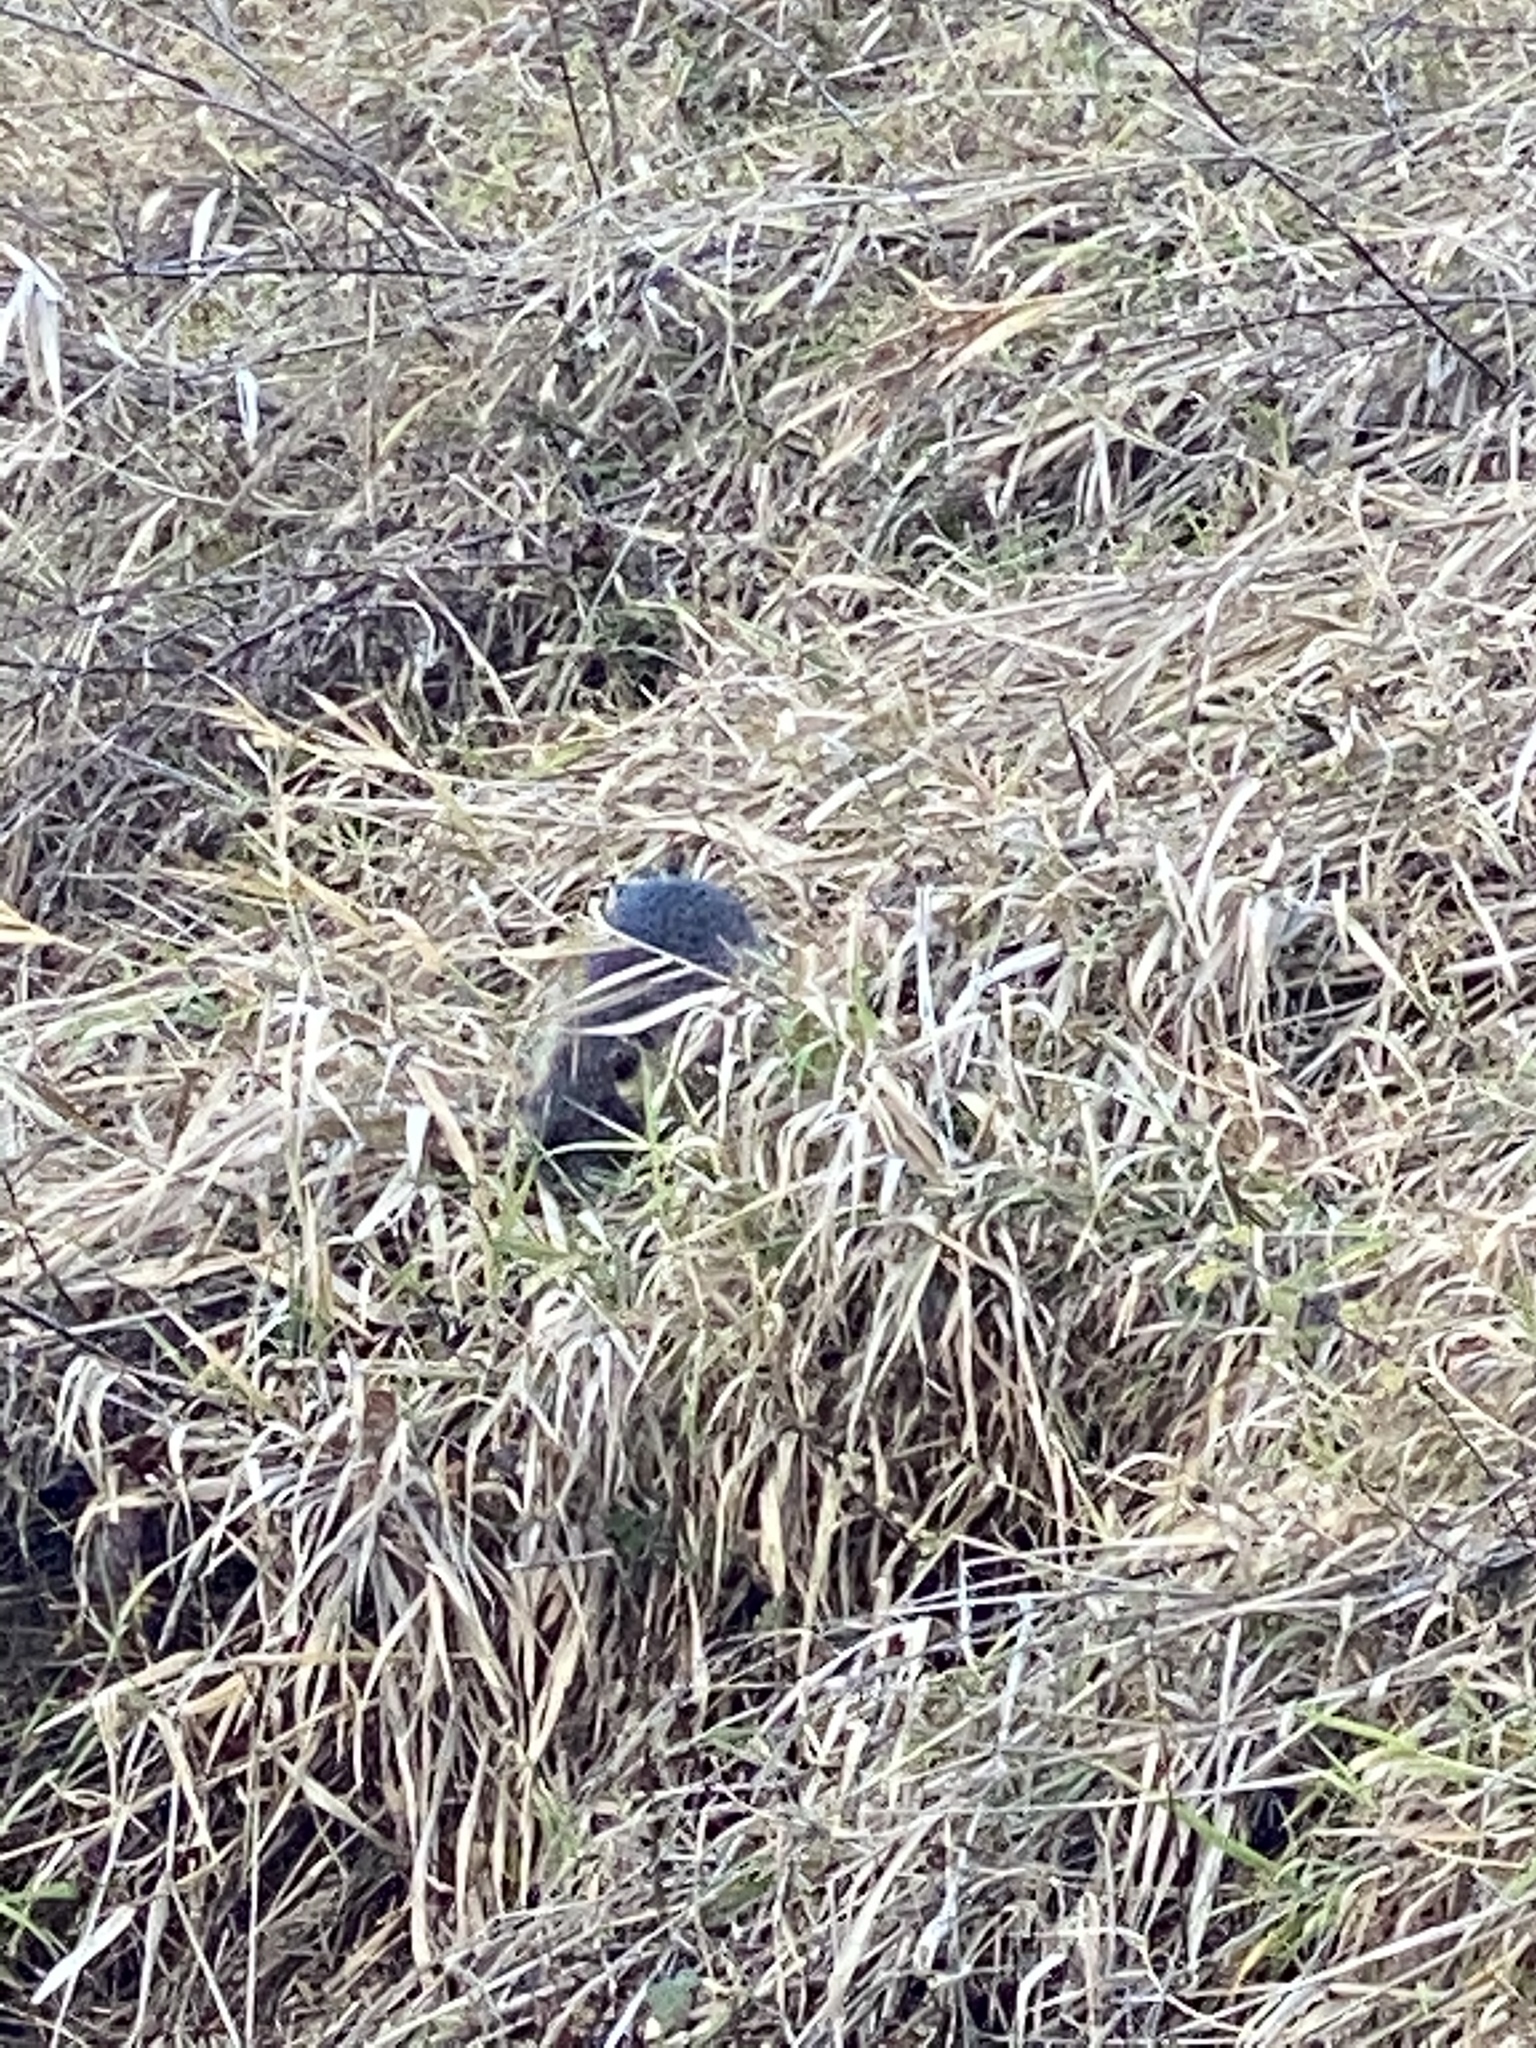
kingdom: Animalia
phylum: Chordata
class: Mammalia
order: Rodentia
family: Myocastoridae
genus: Myocastor
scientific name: Myocastor coypus
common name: Coypu
